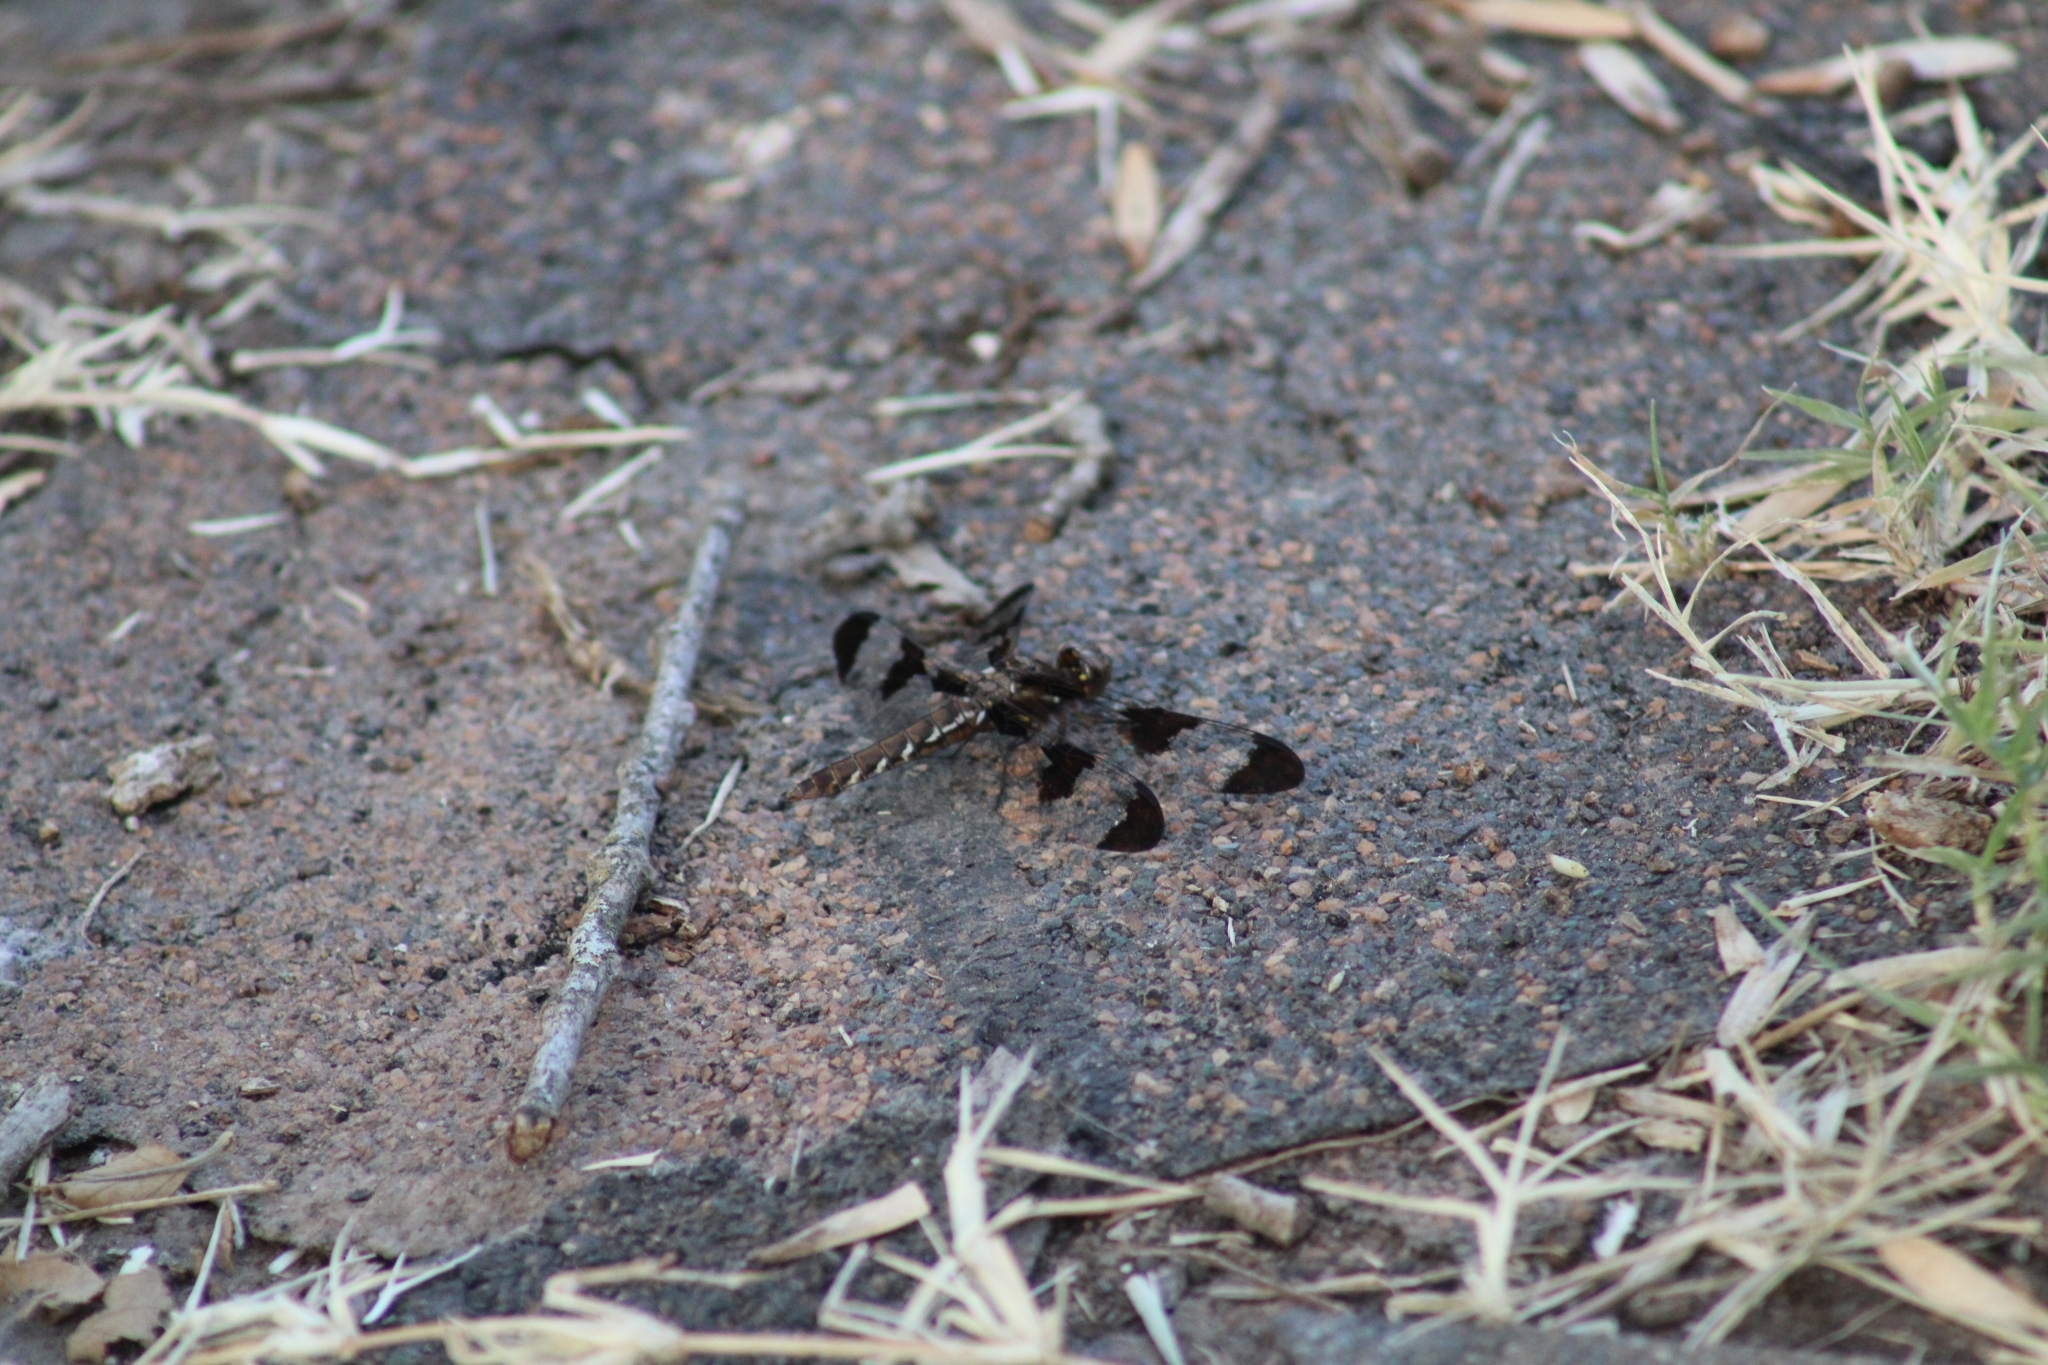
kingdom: Animalia
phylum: Arthropoda
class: Insecta
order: Odonata
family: Libellulidae
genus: Plathemis
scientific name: Plathemis lydia
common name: Common whitetail
